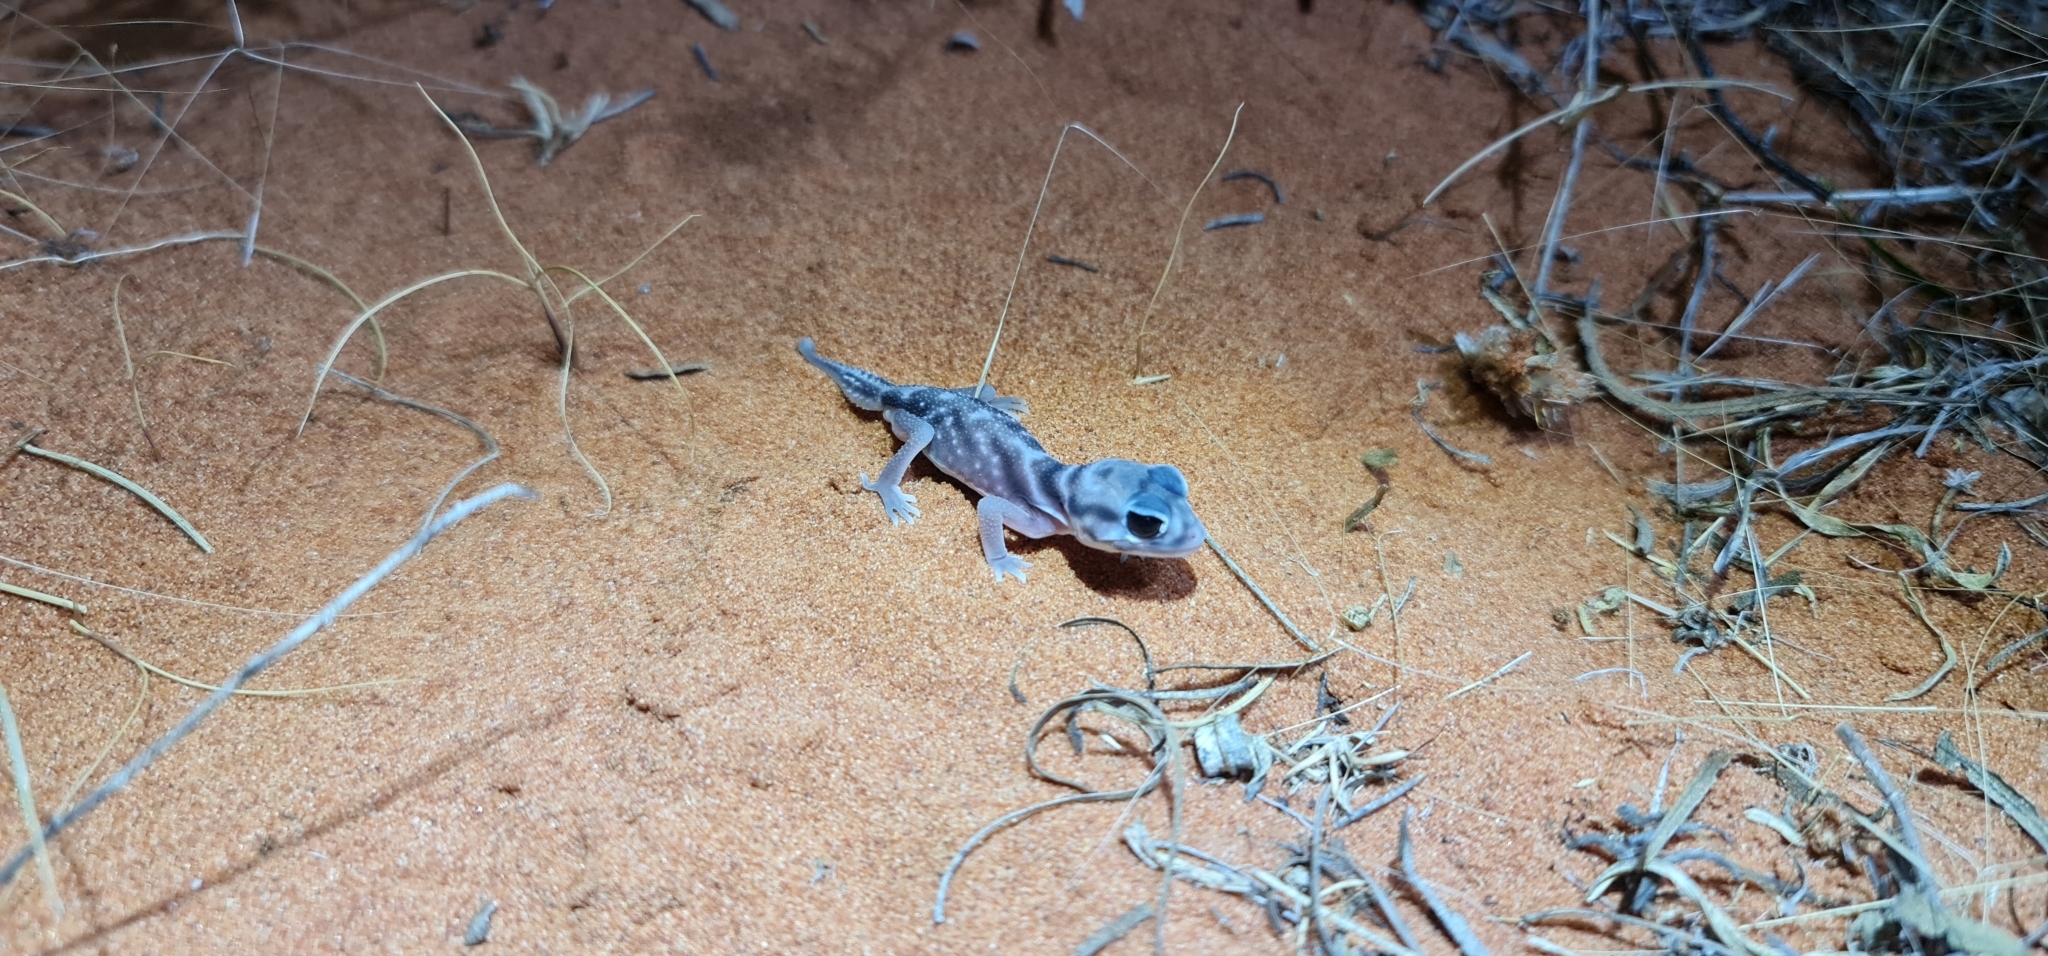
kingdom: Animalia
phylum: Chordata
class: Squamata
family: Carphodactylidae
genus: Nephrurus
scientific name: Nephrurus deleani
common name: Pernatty knob-tail
